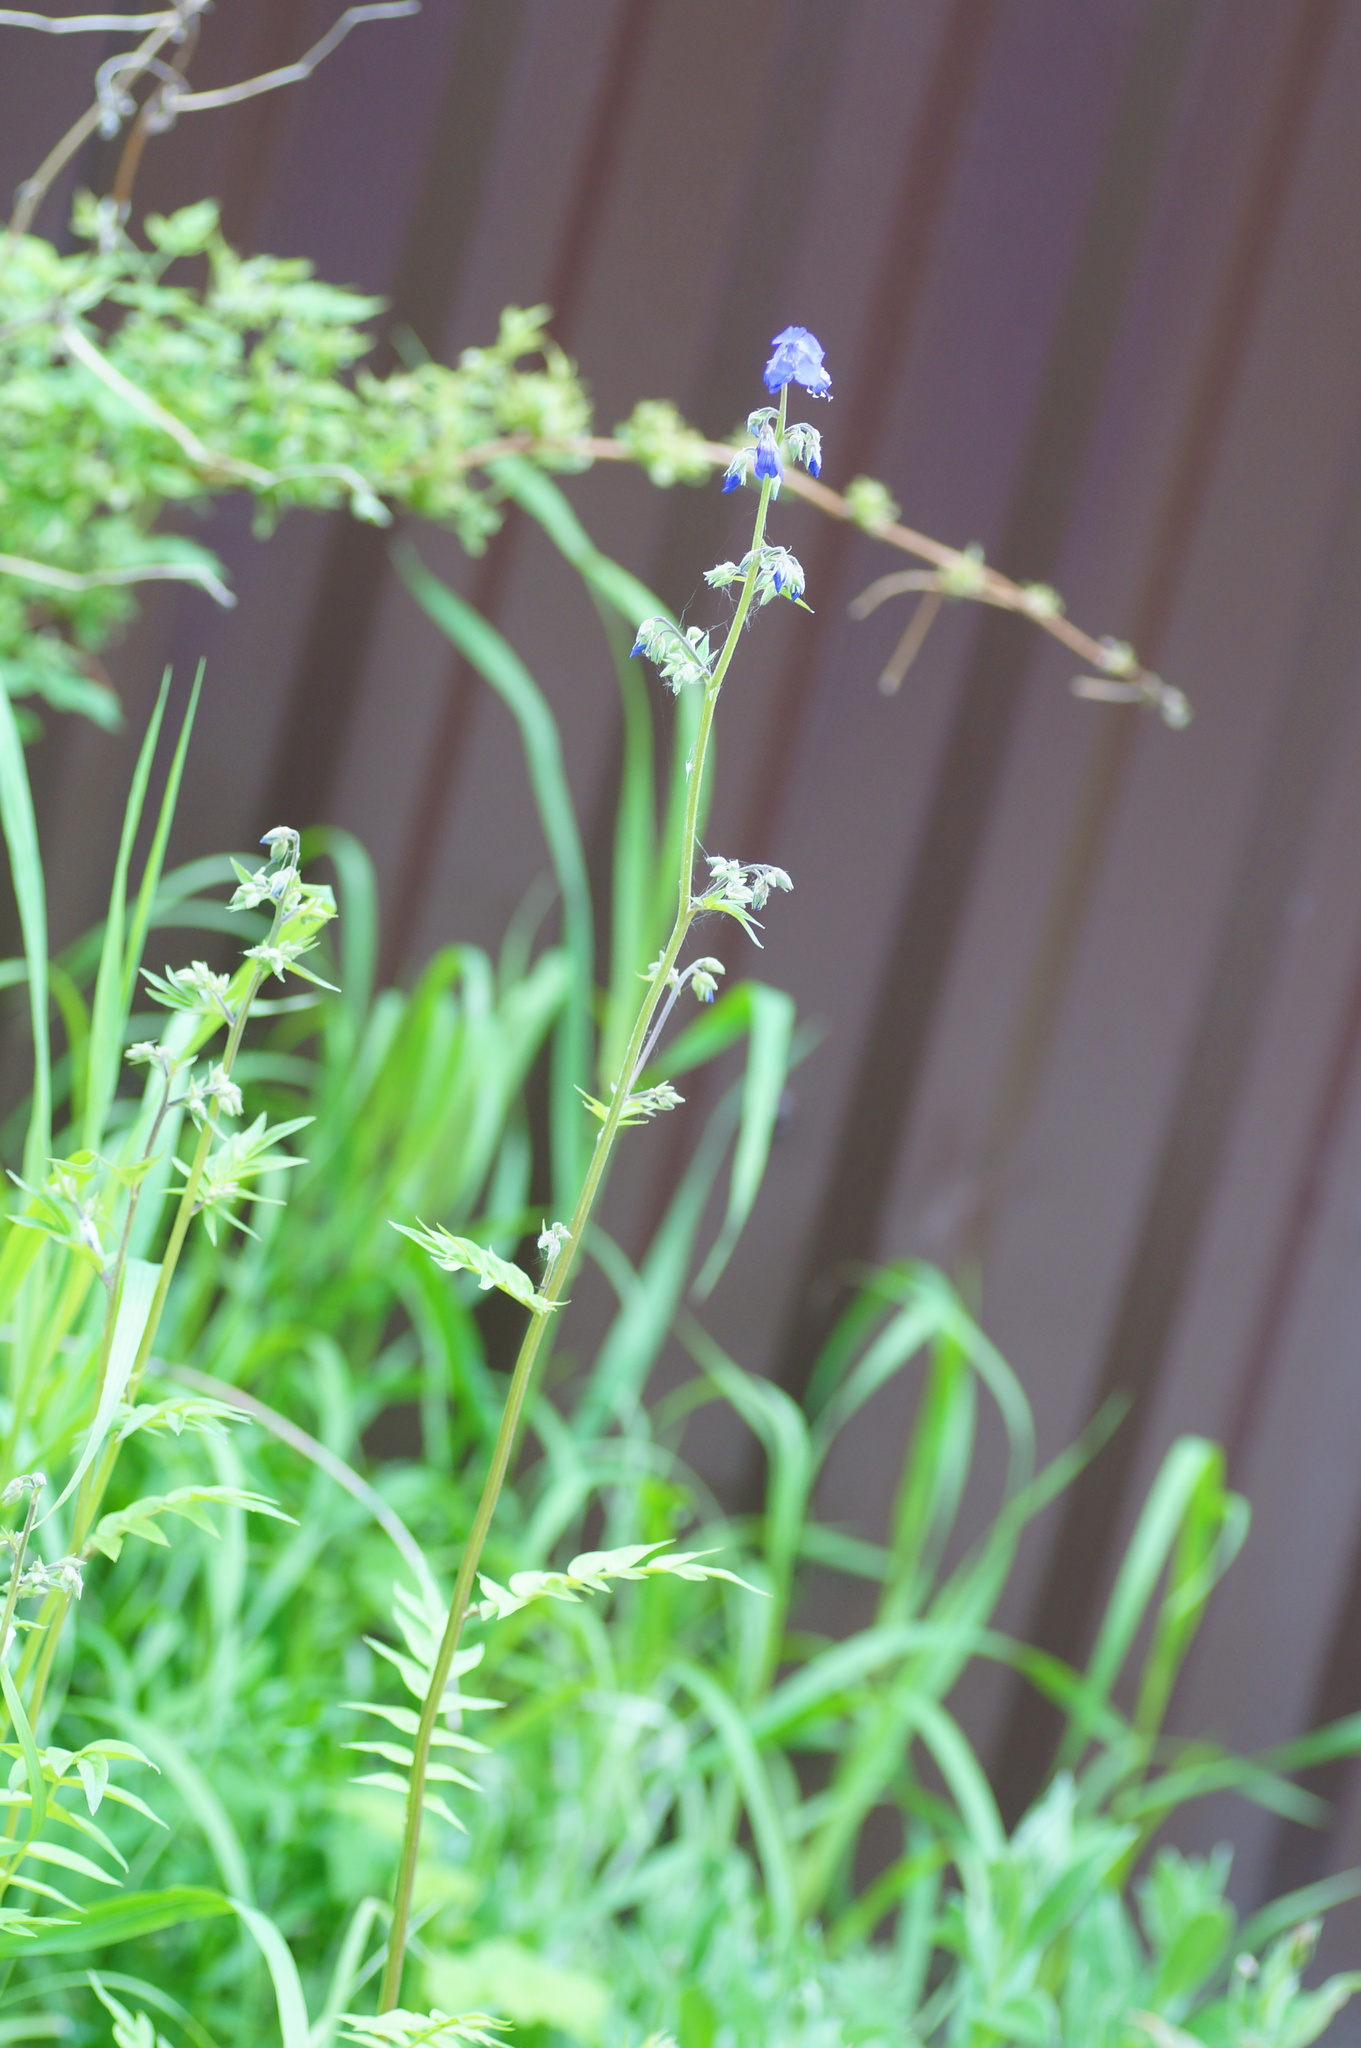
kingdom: Plantae
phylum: Tracheophyta
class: Magnoliopsida
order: Ericales
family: Polemoniaceae
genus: Polemonium
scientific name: Polemonium caeruleum
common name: Jacob's-ladder
